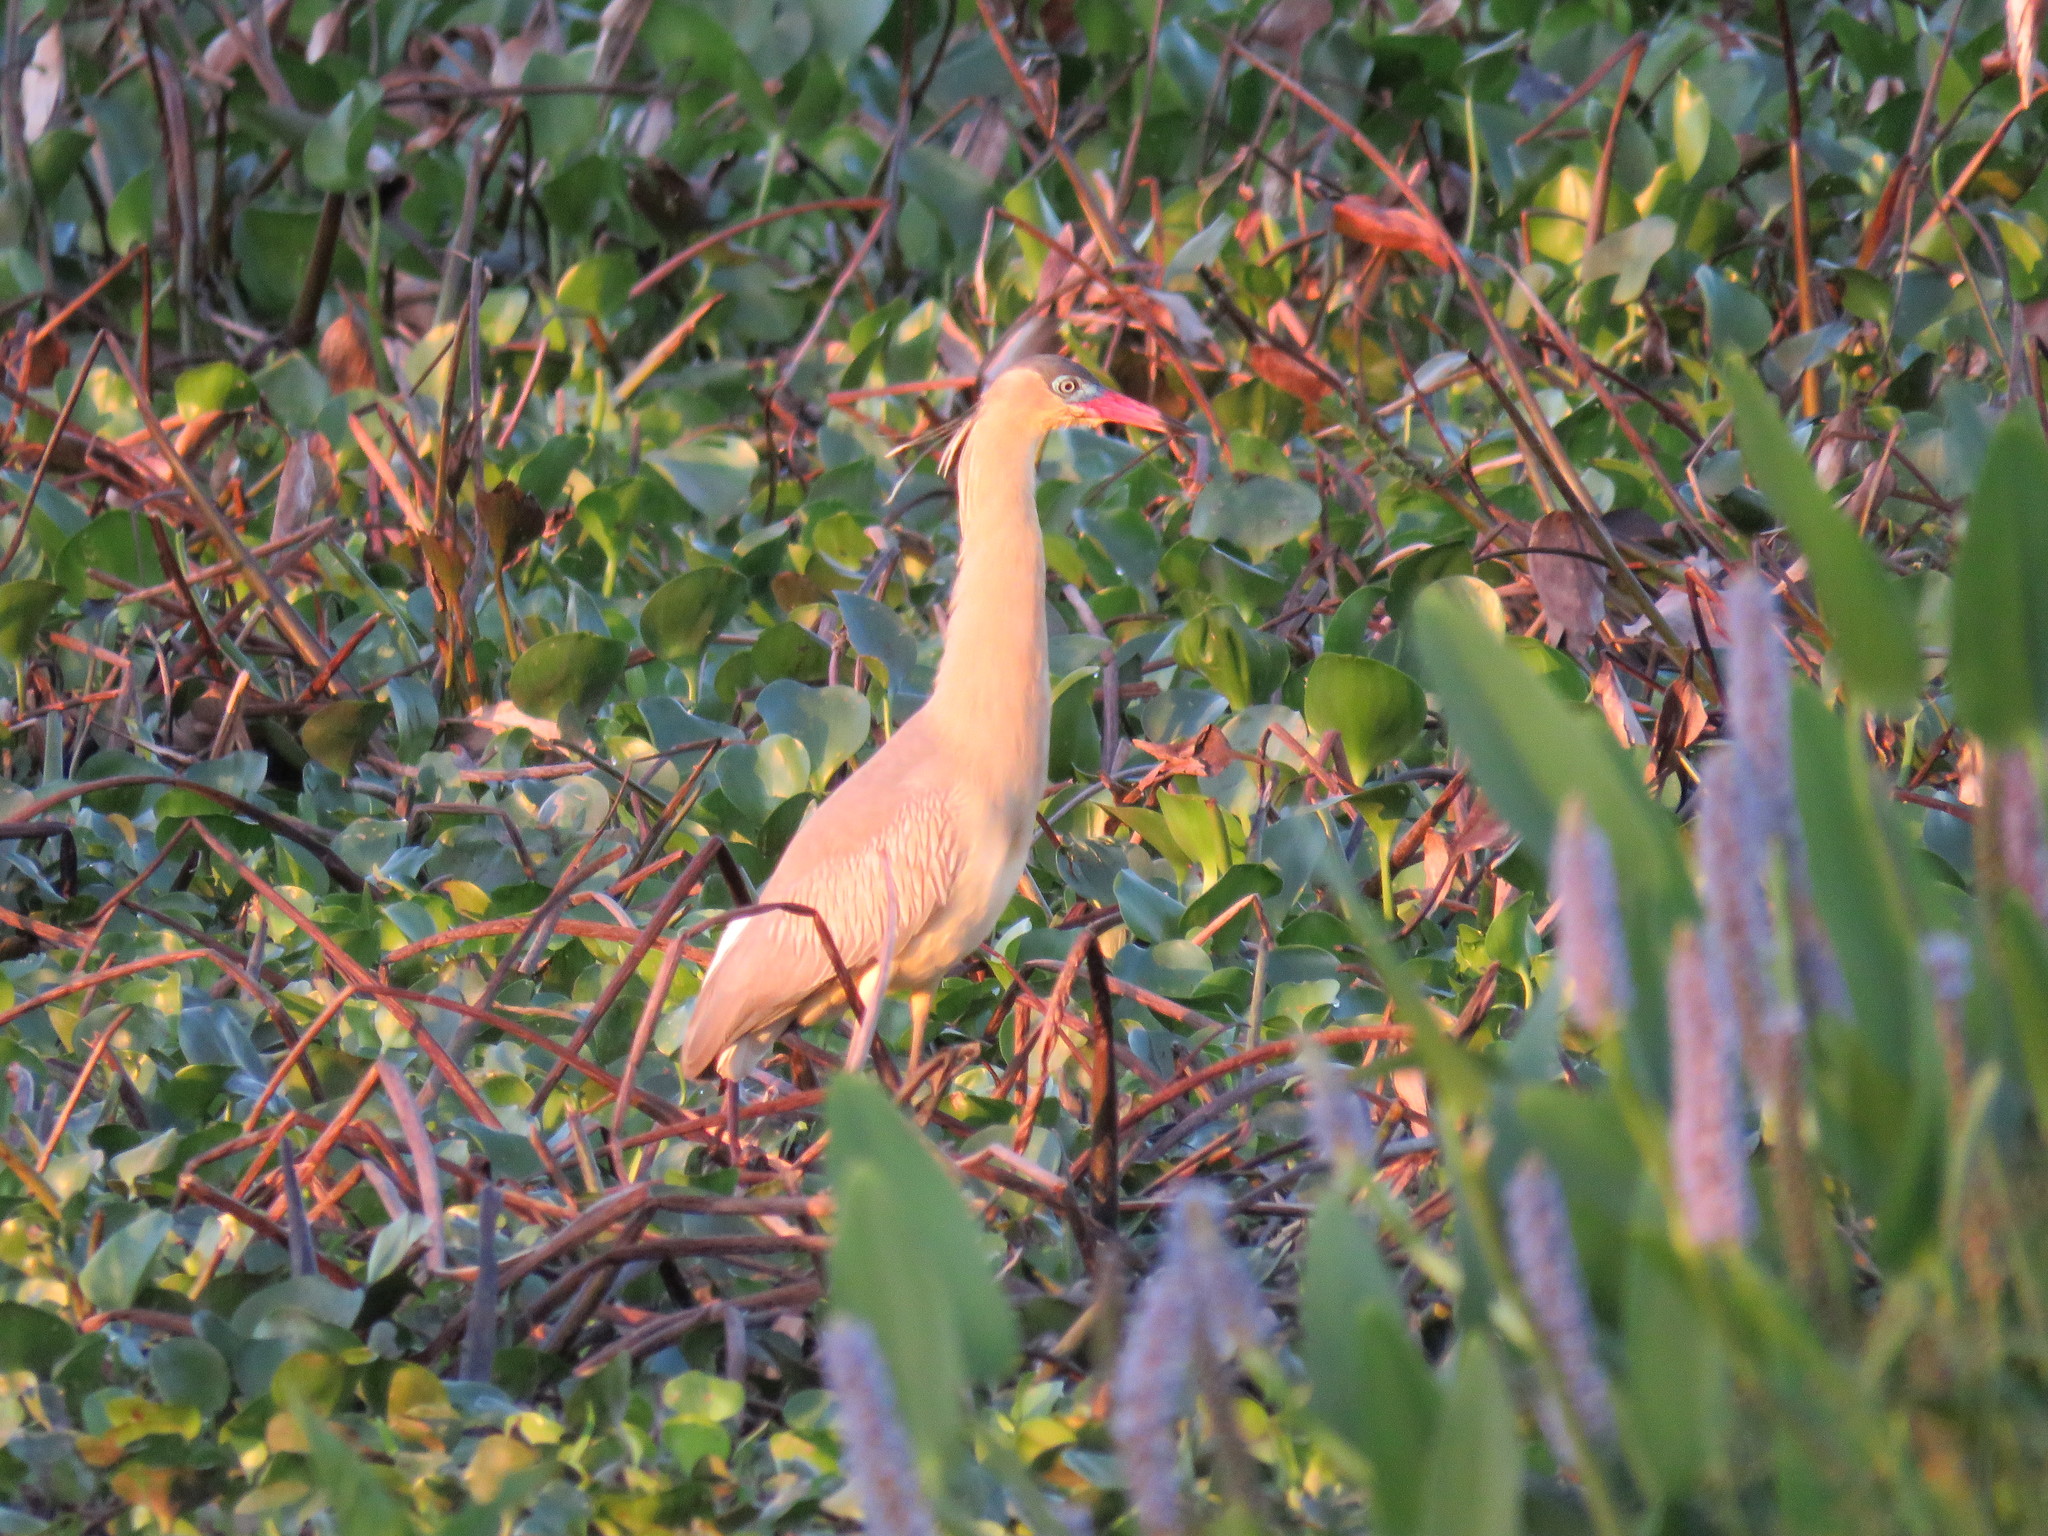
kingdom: Animalia
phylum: Chordata
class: Aves
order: Pelecaniformes
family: Ardeidae
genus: Syrigma
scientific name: Syrigma sibilatrix
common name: Whistling heron
